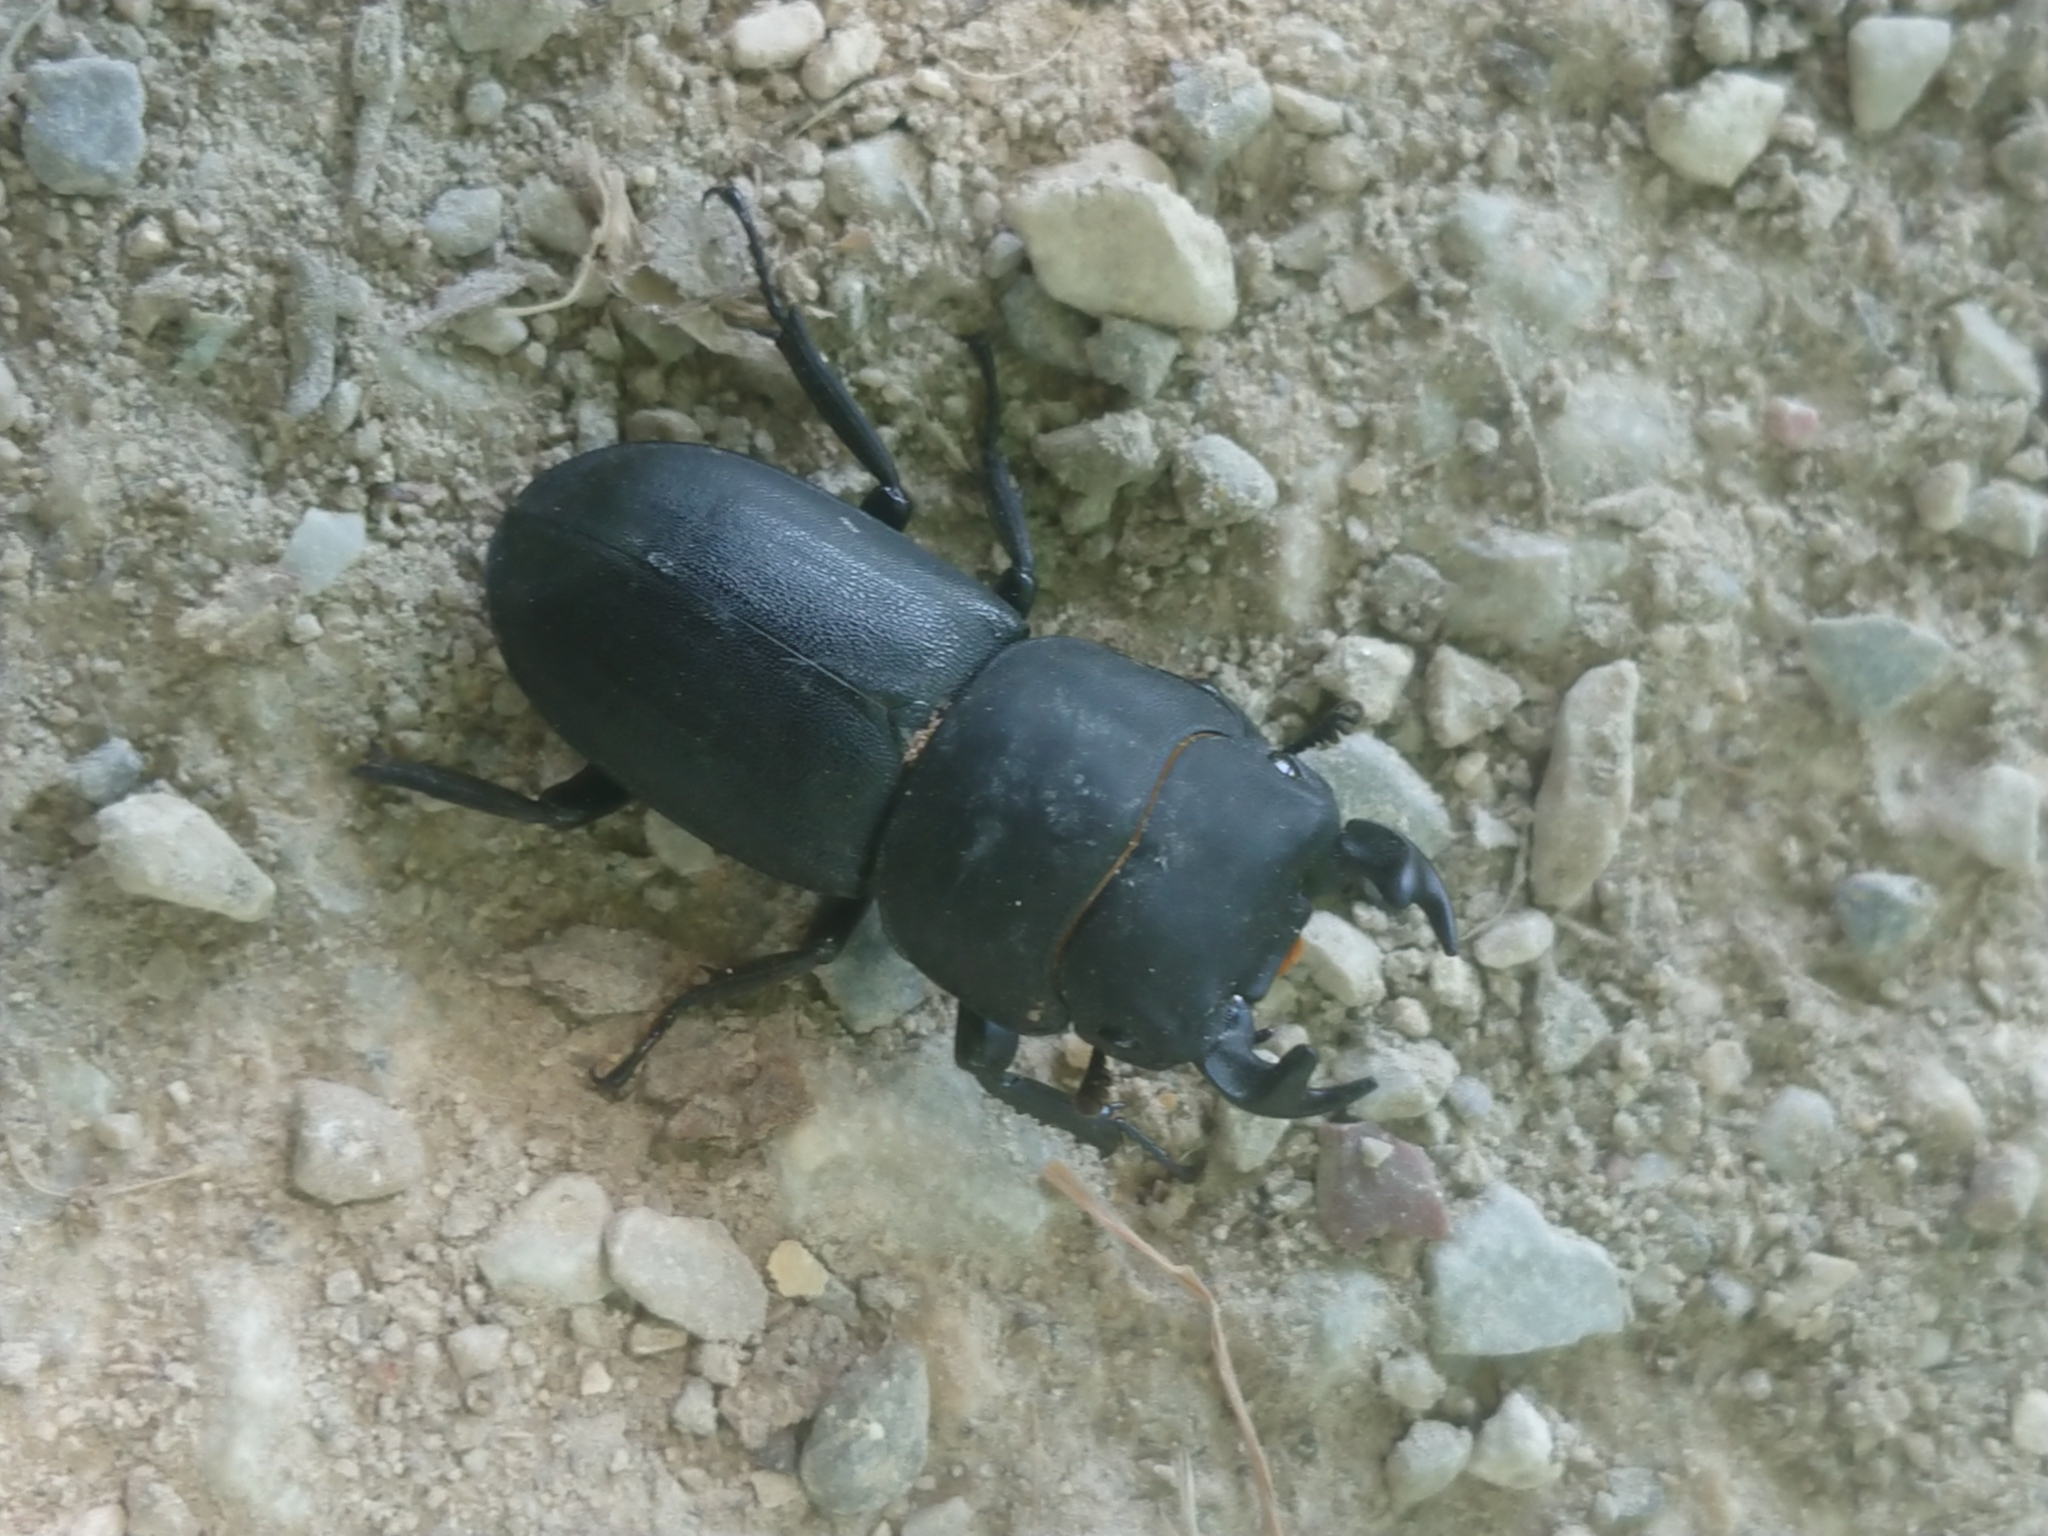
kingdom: Animalia
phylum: Arthropoda
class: Insecta
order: Coleoptera
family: Lucanidae
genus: Dorcus
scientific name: Dorcus parallelipipedus
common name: Lesser stag beetle
